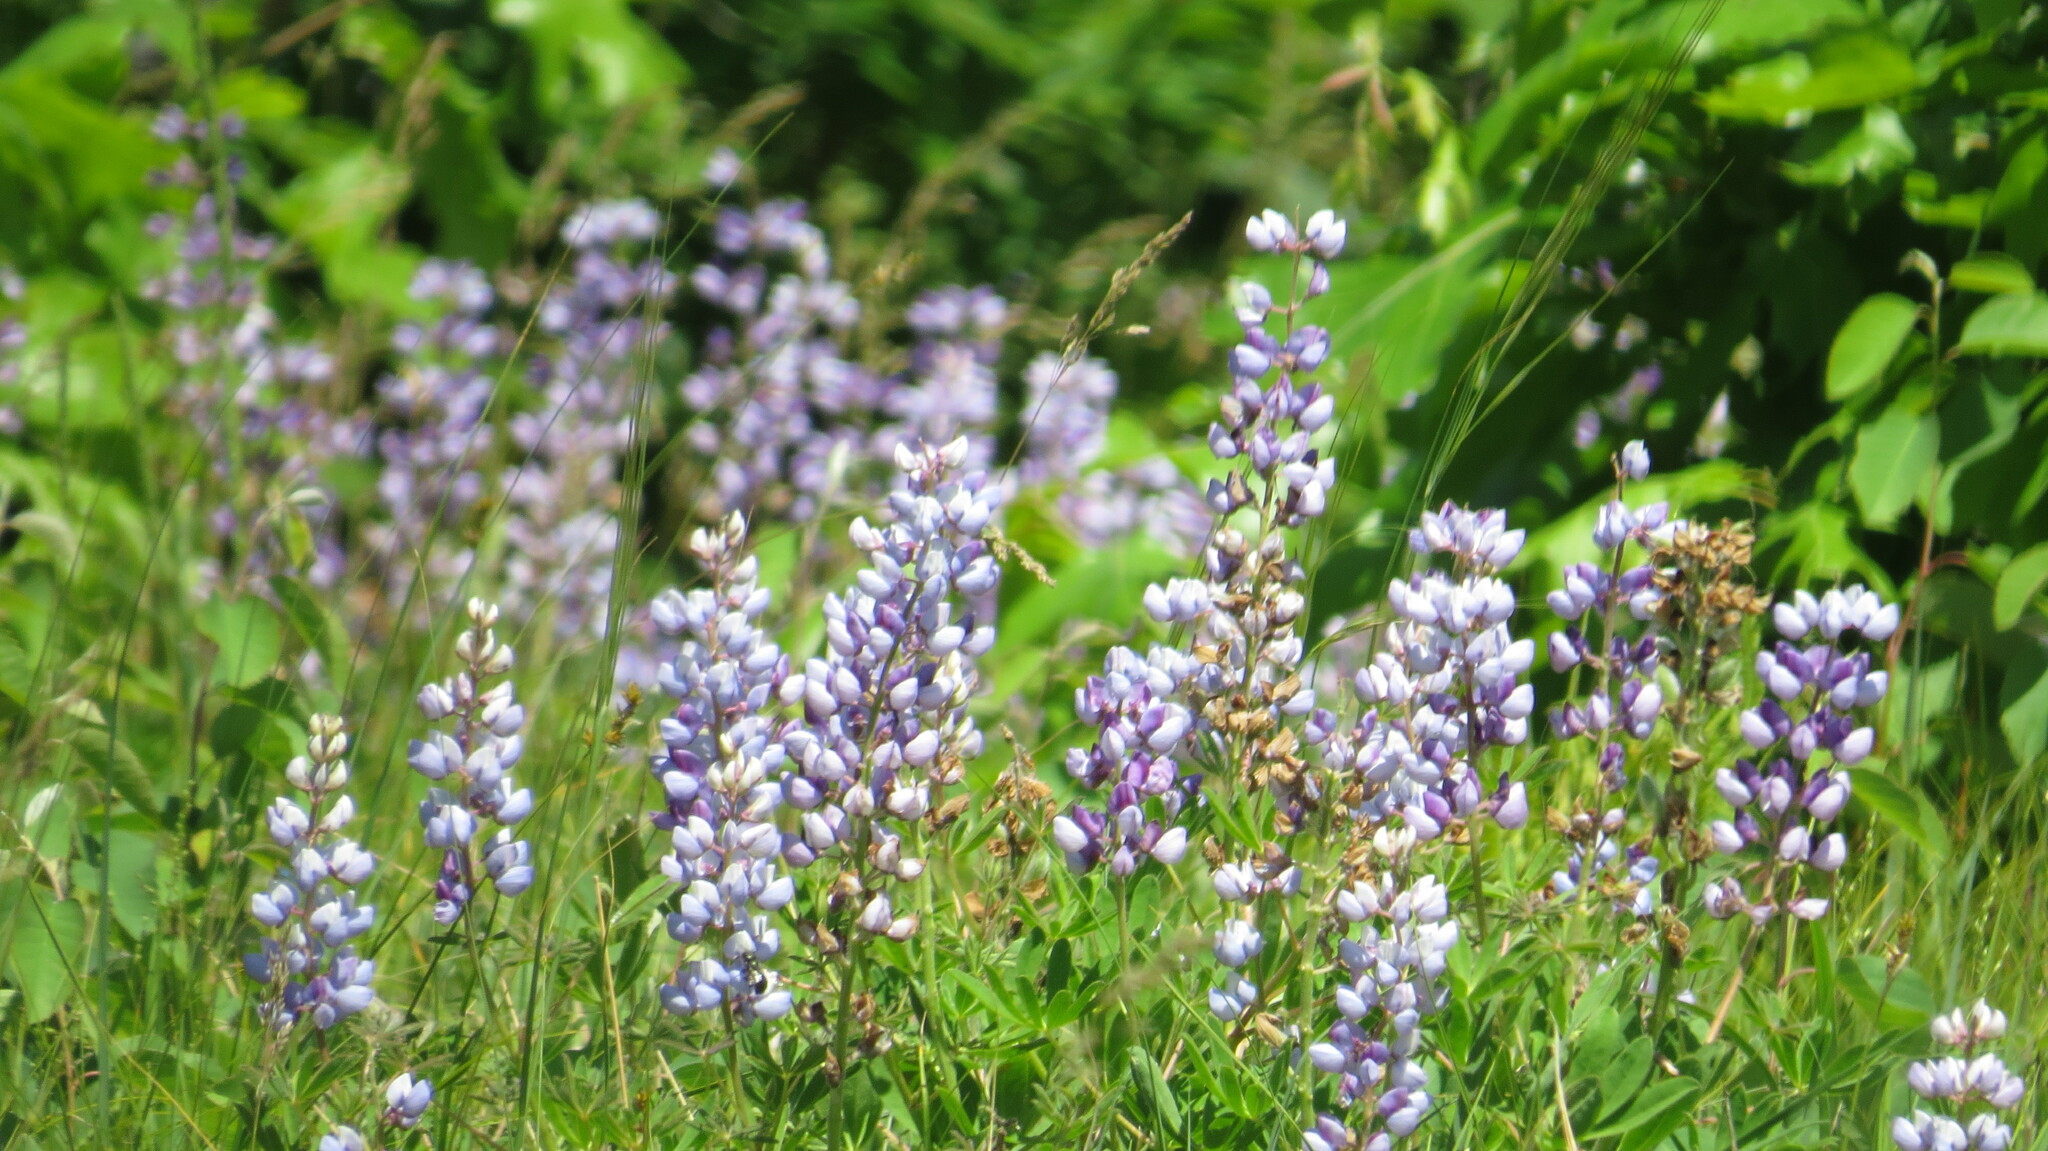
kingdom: Plantae
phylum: Tracheophyta
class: Magnoliopsida
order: Fabales
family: Fabaceae
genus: Lupinus
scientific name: Lupinus perennis
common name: Sundial lupine
